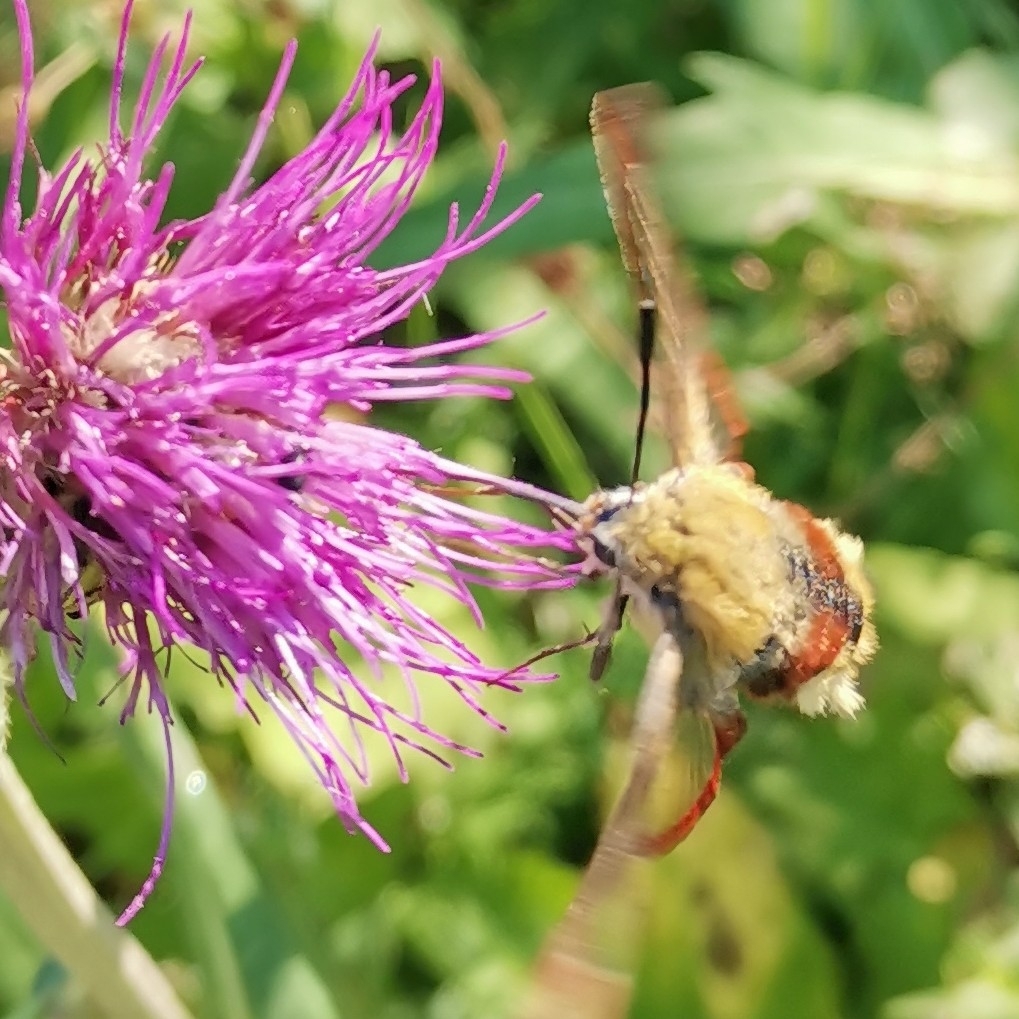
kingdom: Animalia
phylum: Arthropoda
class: Insecta
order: Lepidoptera
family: Sphingidae
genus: Hemaris
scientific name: Hemaris fuciformis
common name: Broad-bordered bee hawk-moth
